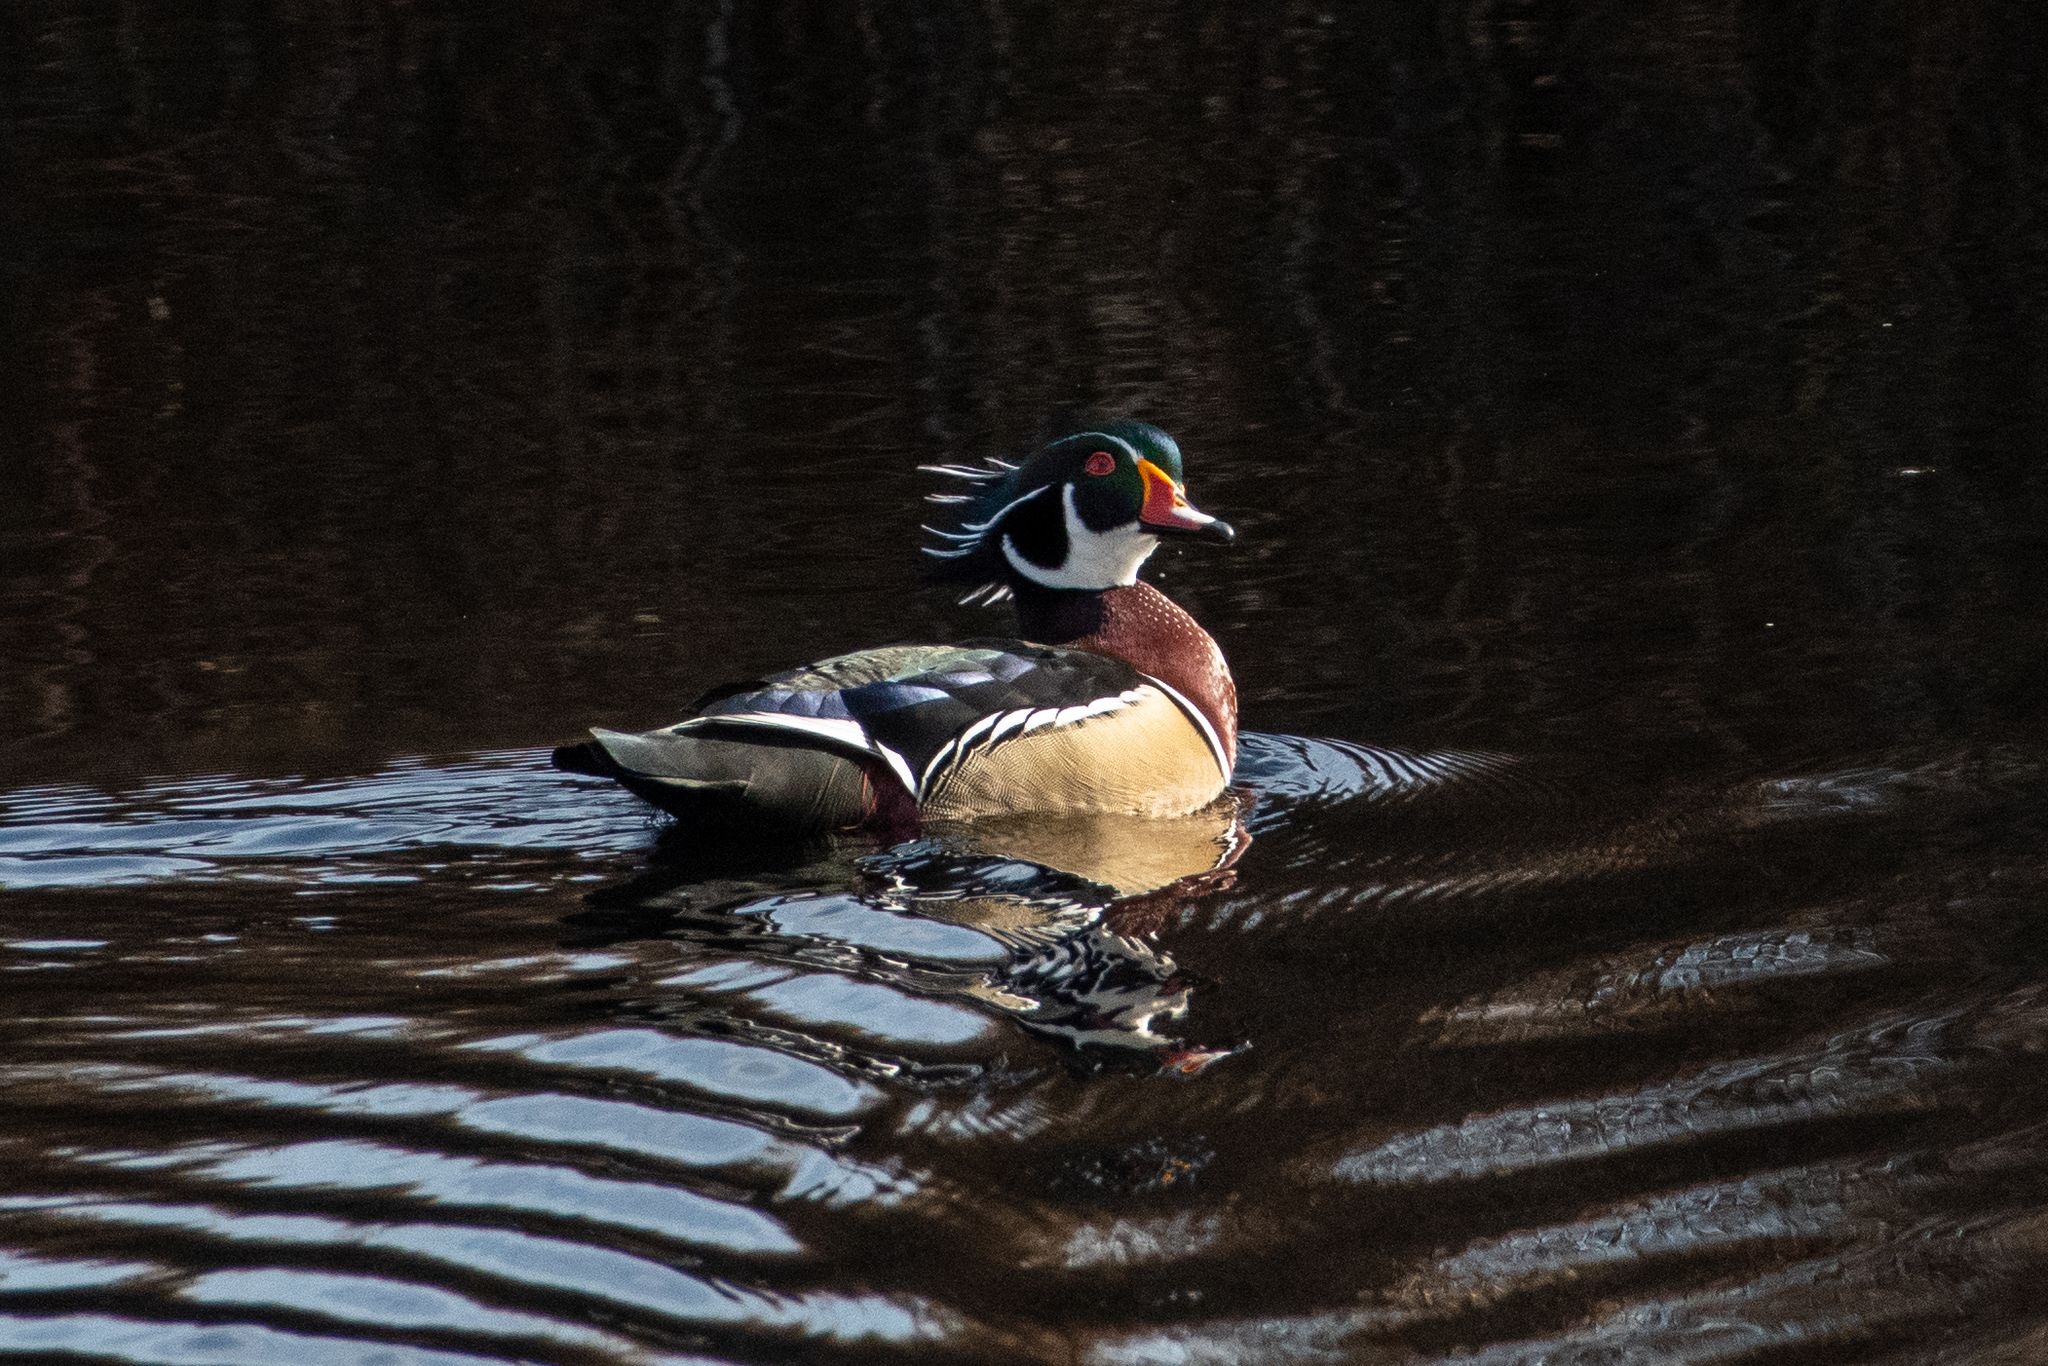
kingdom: Animalia
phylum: Chordata
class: Aves
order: Anseriformes
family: Anatidae
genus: Aix
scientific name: Aix sponsa
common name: Wood duck
